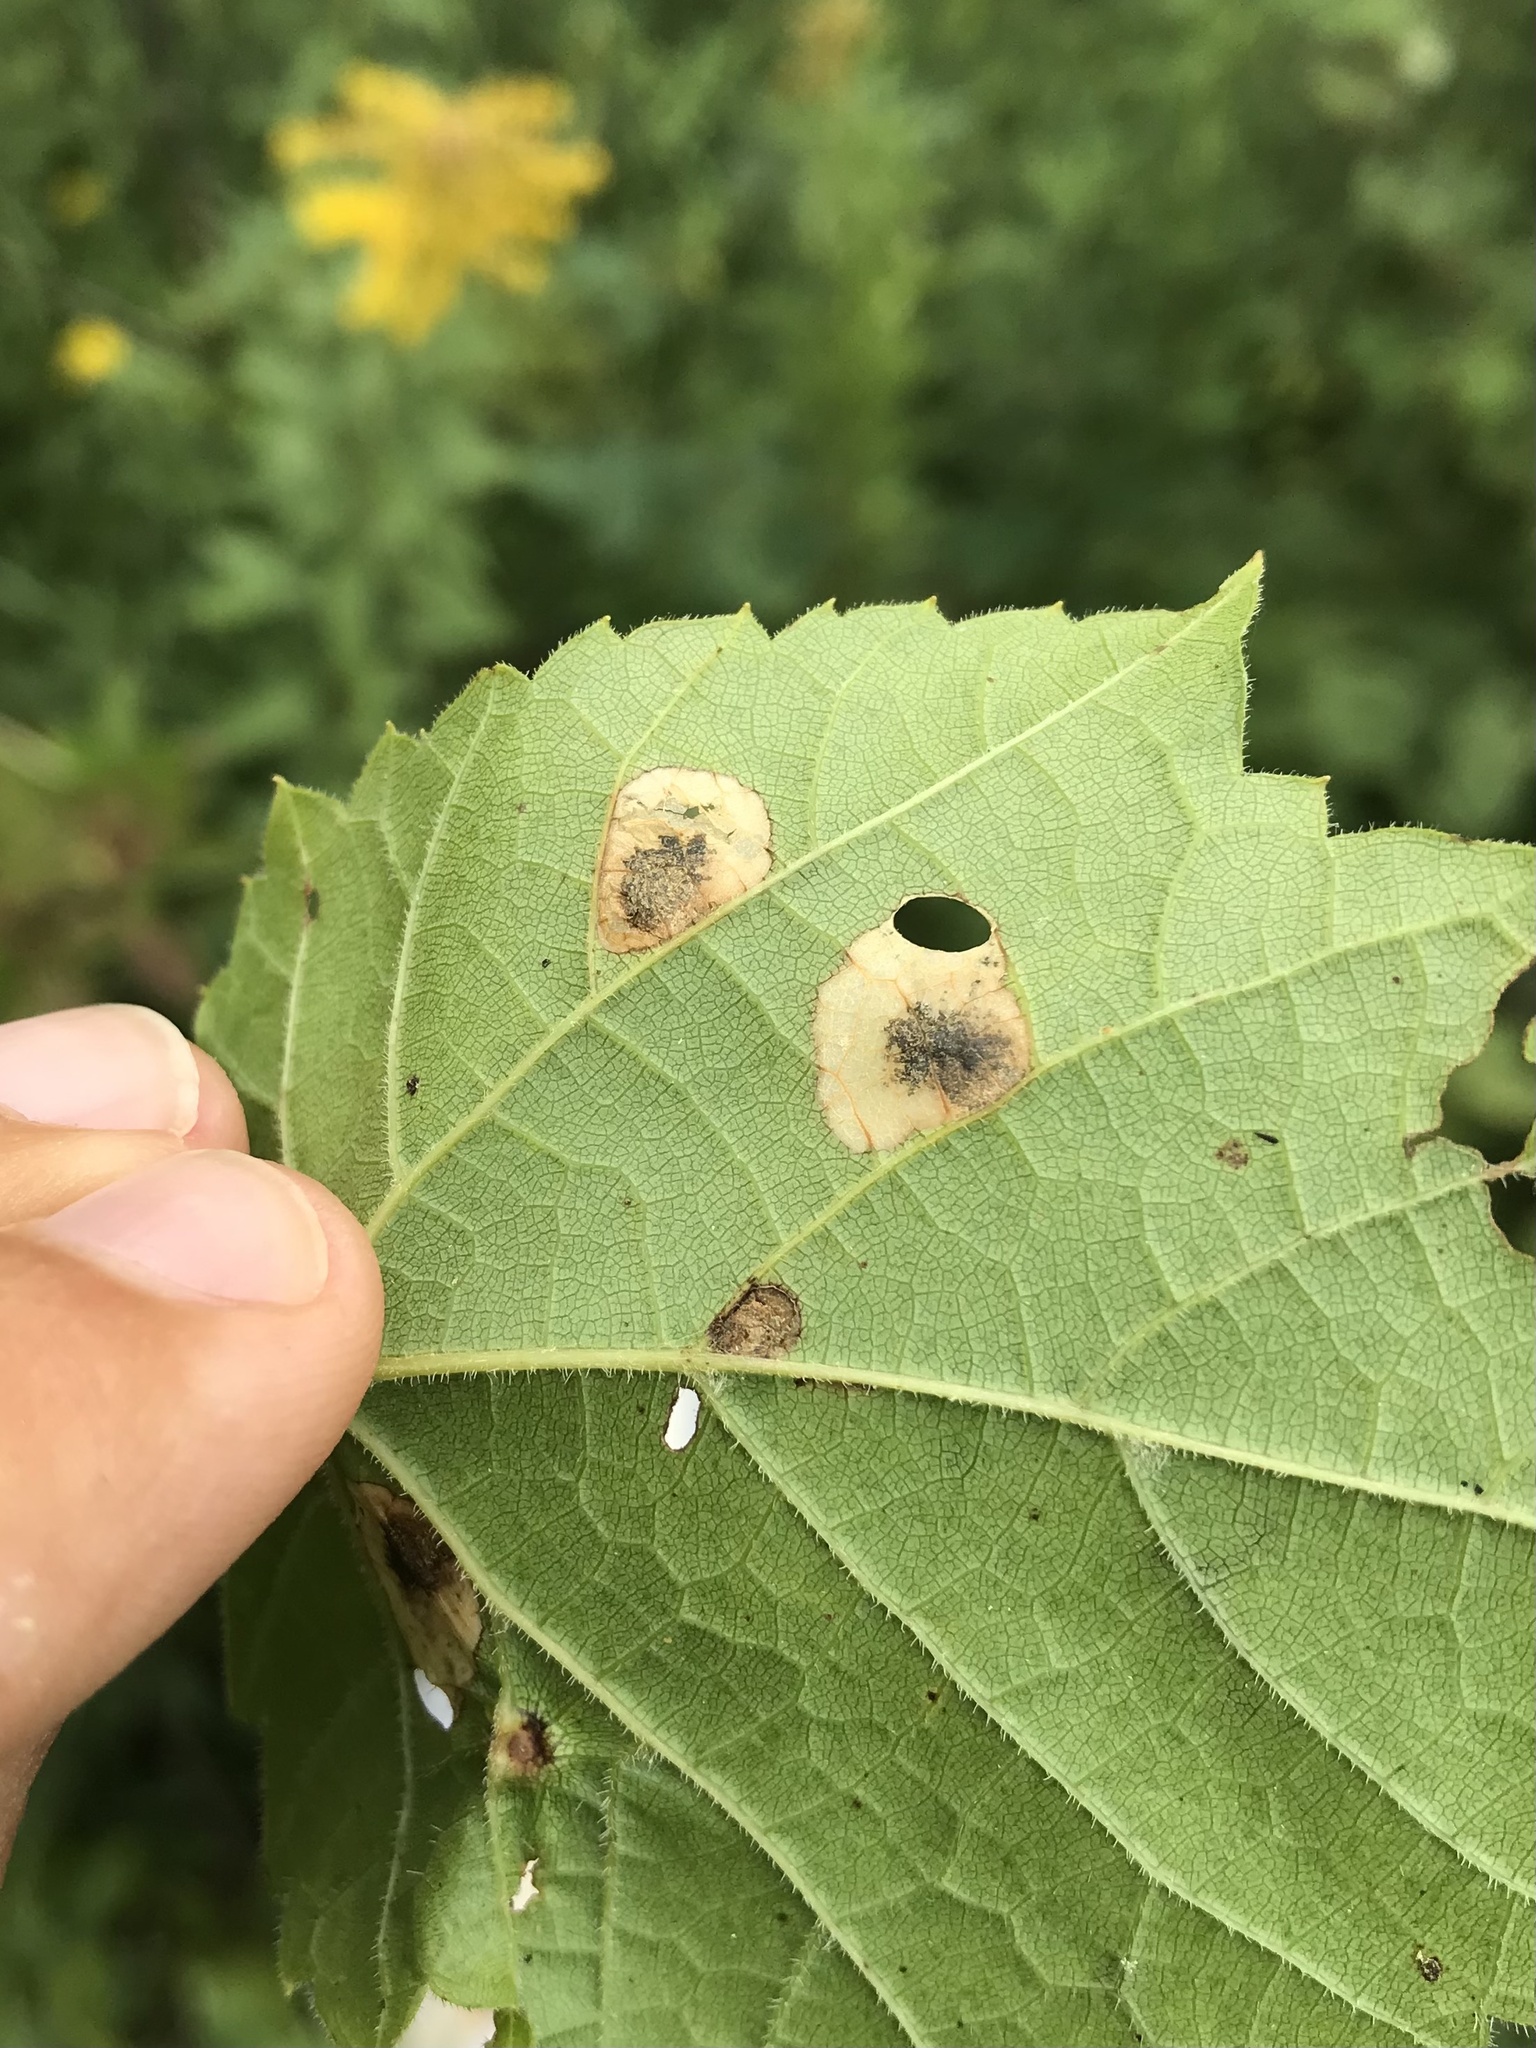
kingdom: Animalia
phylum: Arthropoda
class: Insecta
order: Lepidoptera
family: Heliozelidae
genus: Antispila
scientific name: Antispila oinophylla
